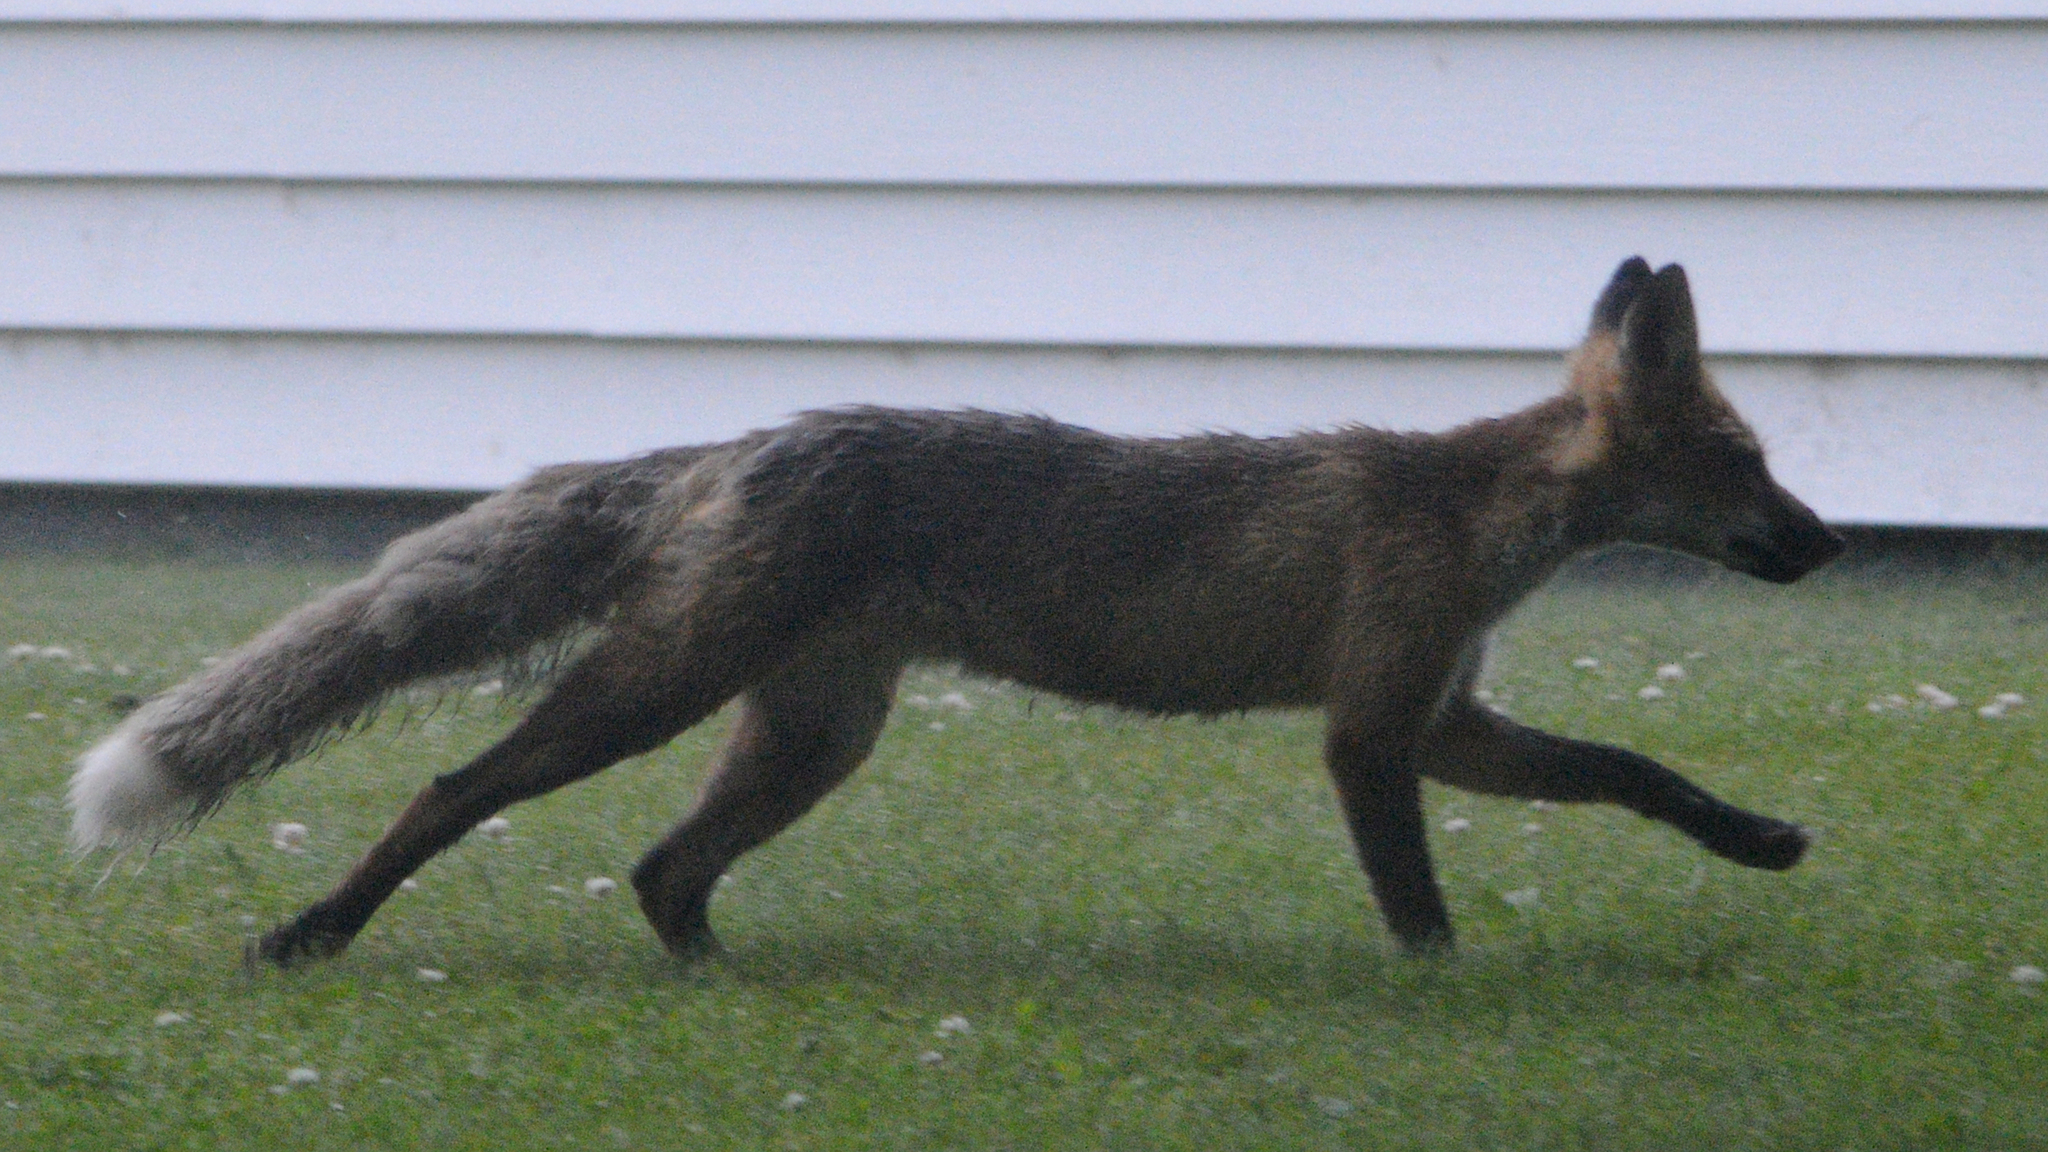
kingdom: Animalia
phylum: Chordata
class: Mammalia
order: Carnivora
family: Canidae
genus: Vulpes
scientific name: Vulpes vulpes
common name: Red fox
